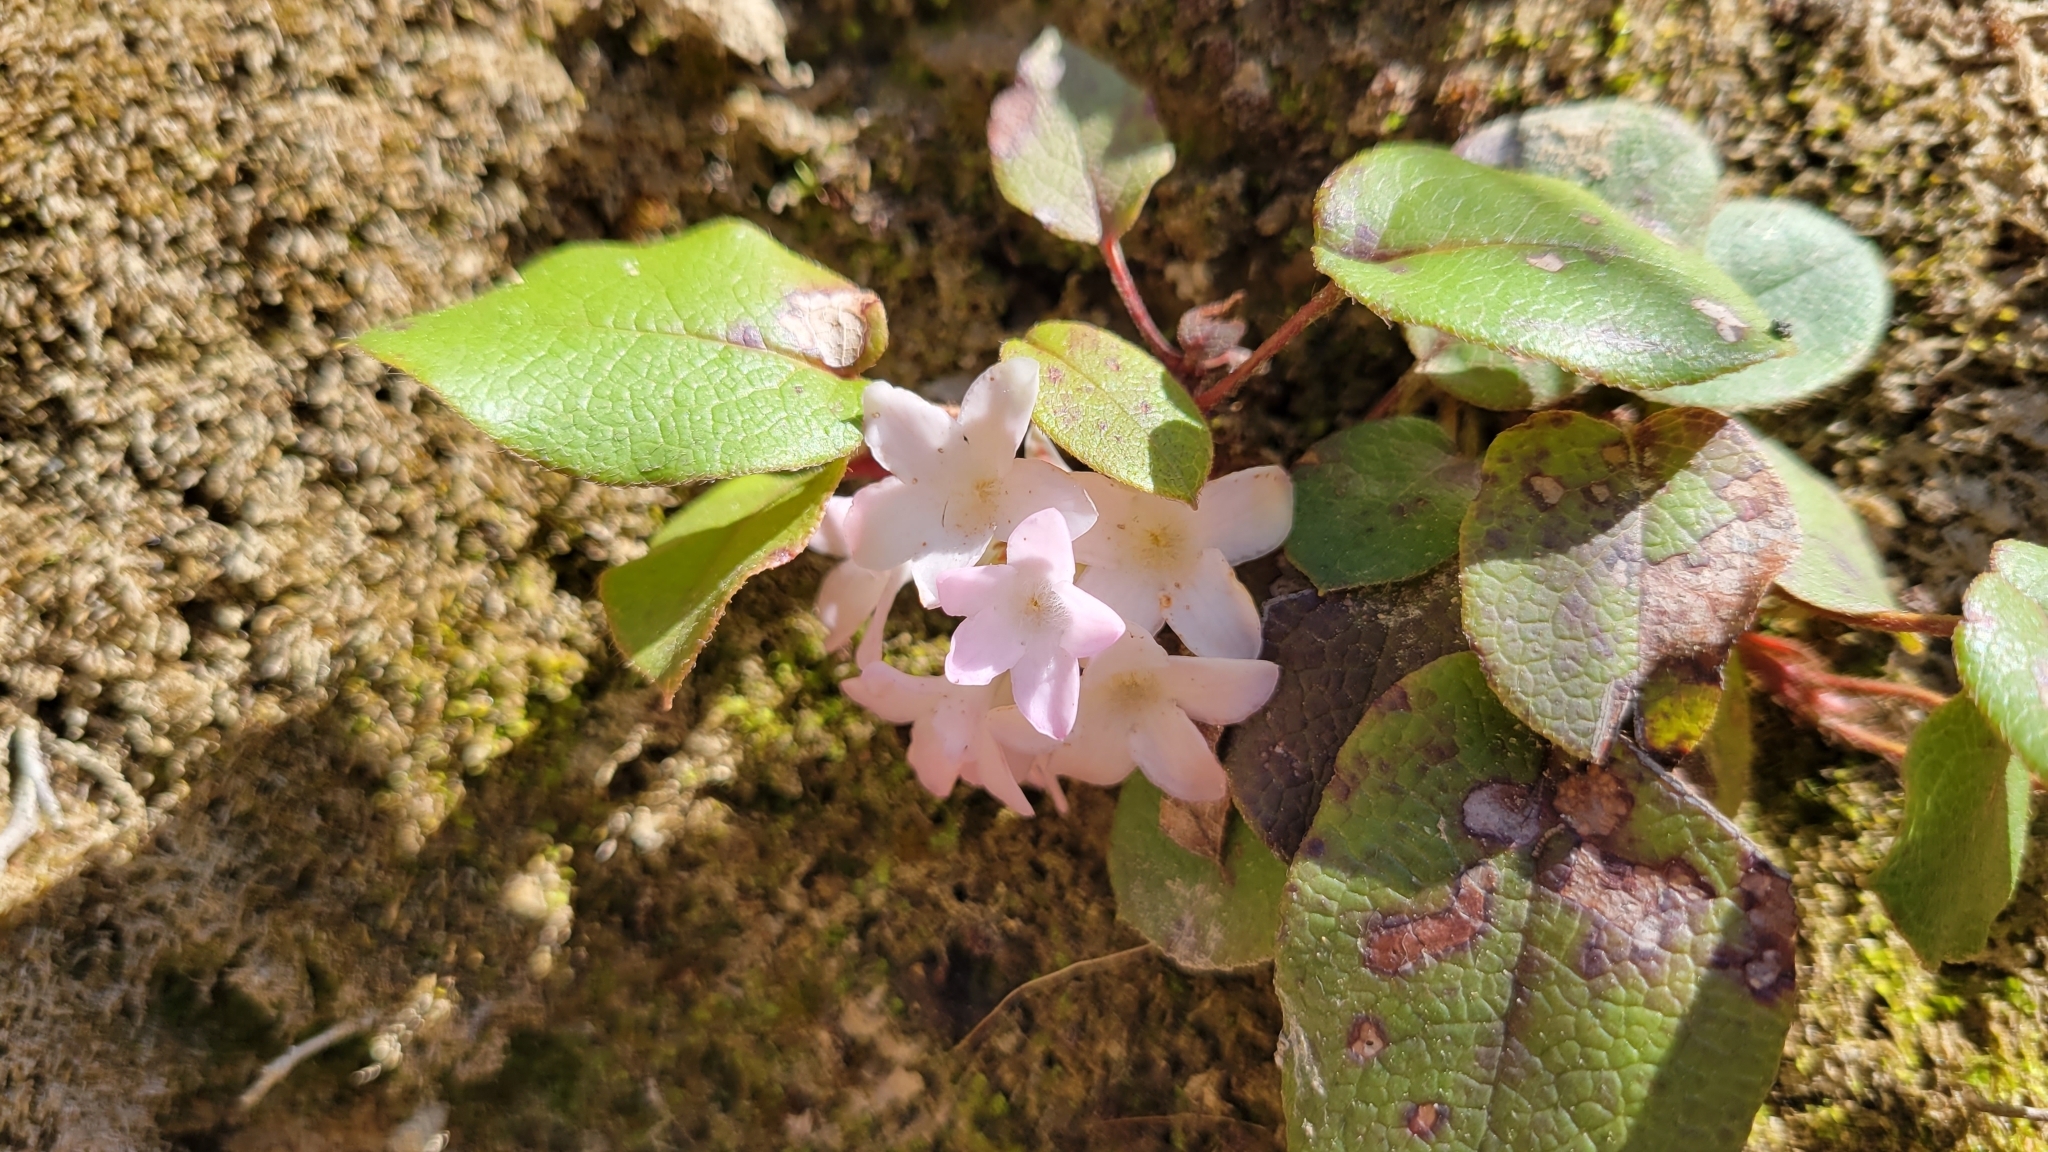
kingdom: Plantae
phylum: Tracheophyta
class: Magnoliopsida
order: Ericales
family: Ericaceae
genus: Epigaea
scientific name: Epigaea repens
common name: Gravelroot
